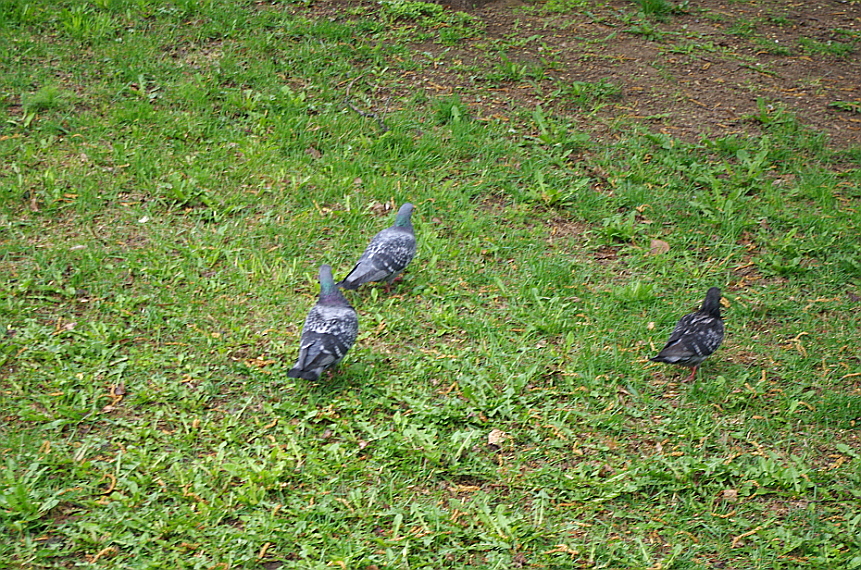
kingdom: Animalia
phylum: Chordata
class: Aves
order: Columbiformes
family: Columbidae
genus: Columba
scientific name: Columba livia
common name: Rock pigeon
